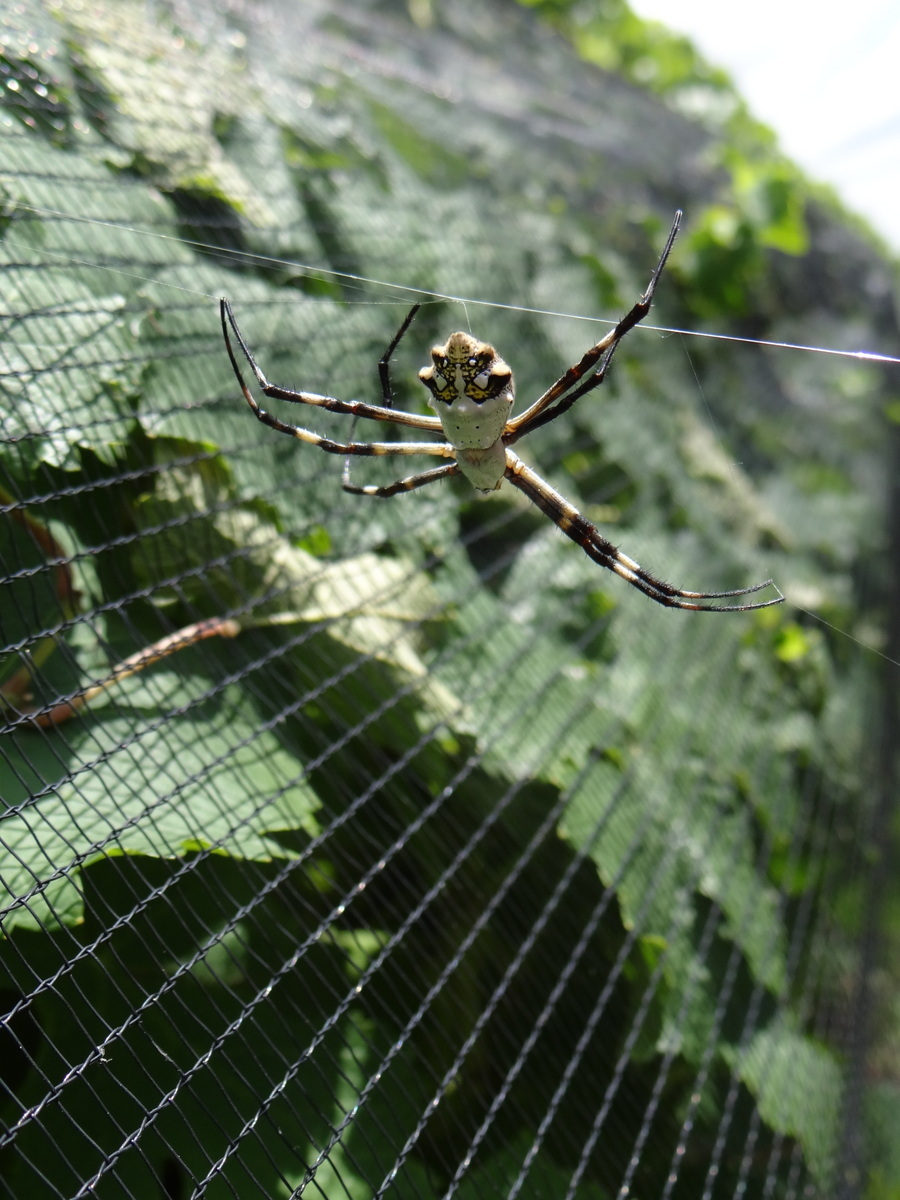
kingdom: Animalia
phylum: Arthropoda
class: Arachnida
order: Araneae
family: Araneidae
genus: Argiope
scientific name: Argiope argentata
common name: Orb weavers
